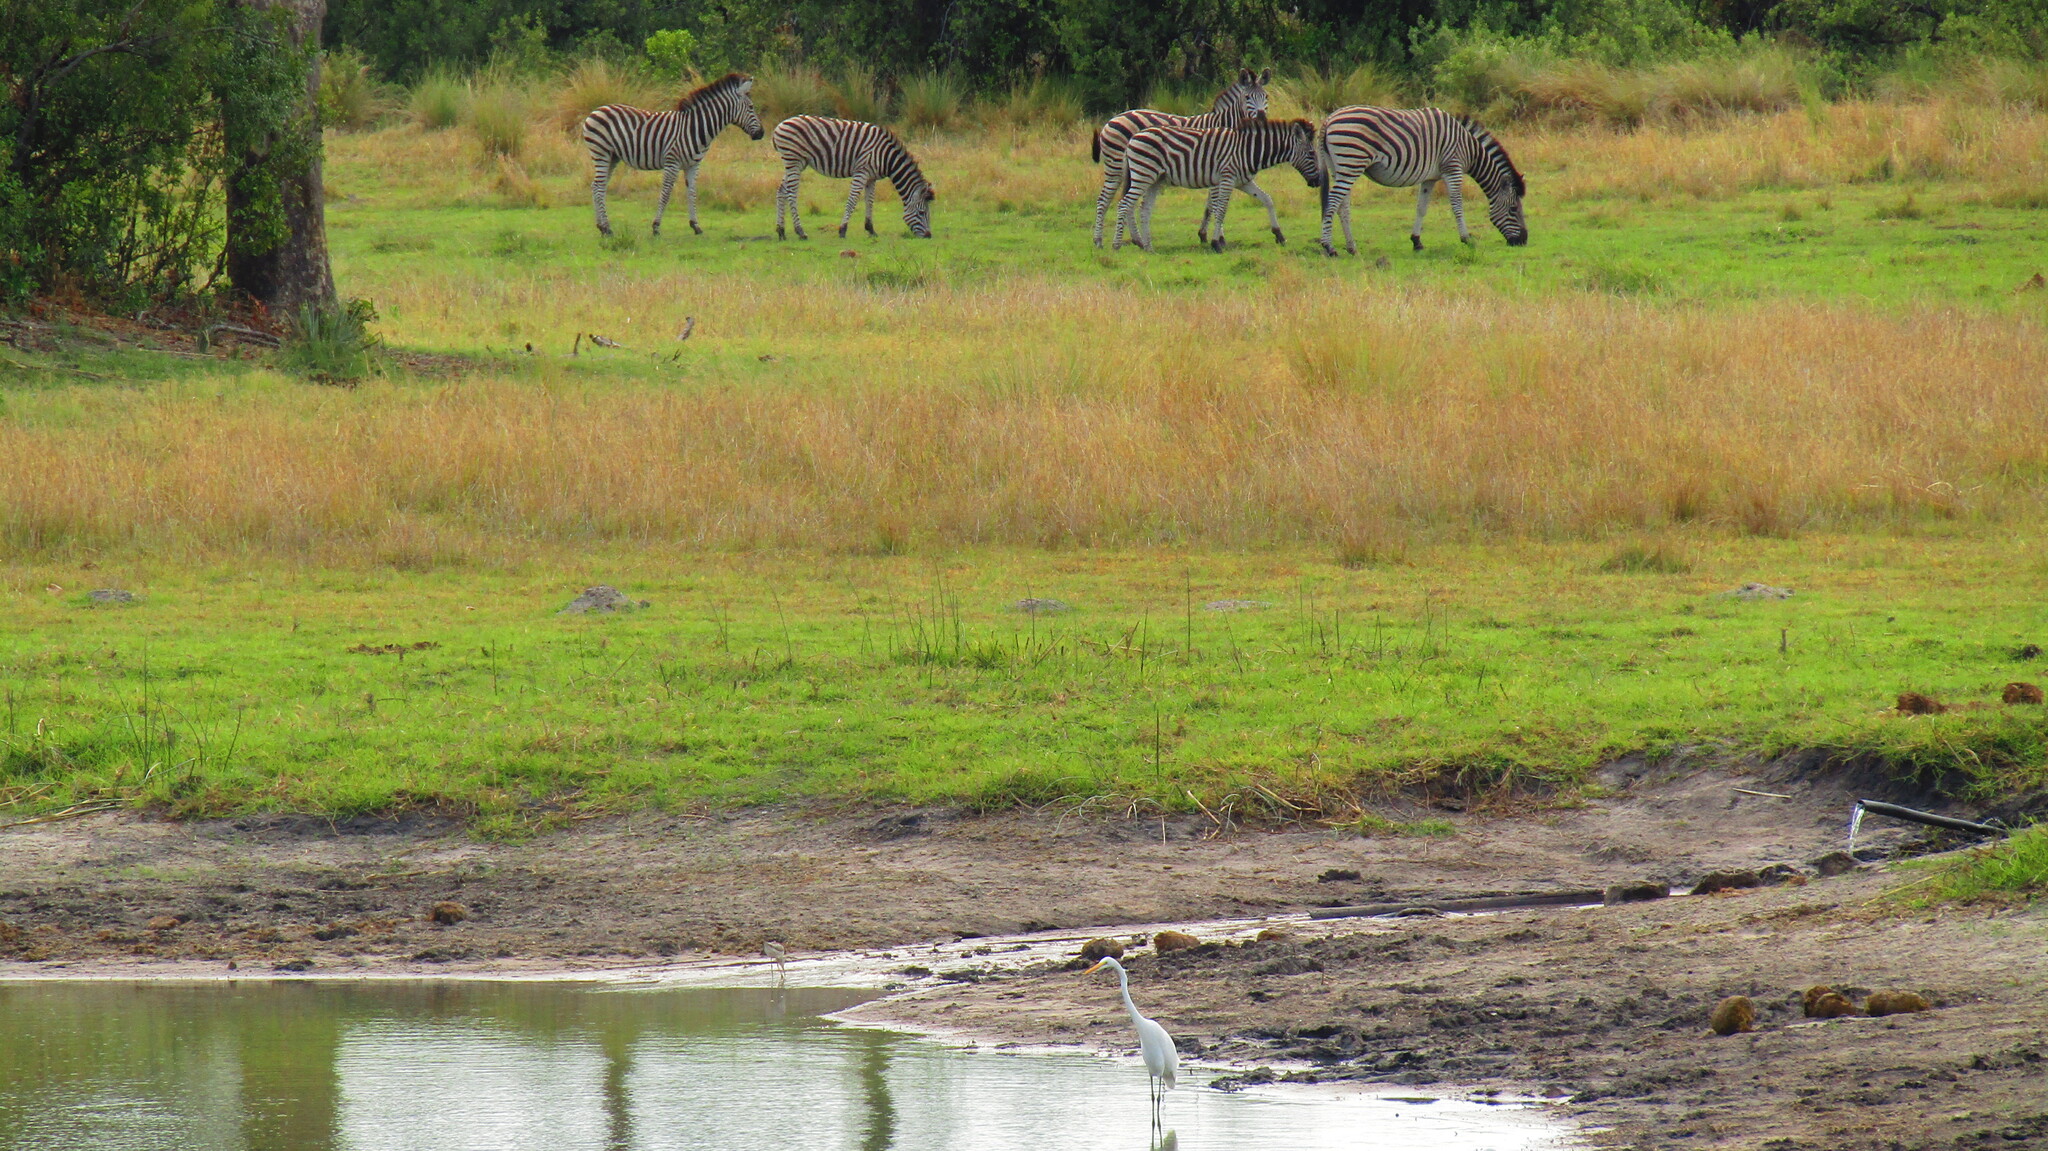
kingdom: Animalia
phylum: Chordata
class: Mammalia
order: Perissodactyla
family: Equidae
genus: Equus
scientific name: Equus quagga
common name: Plains zebra
